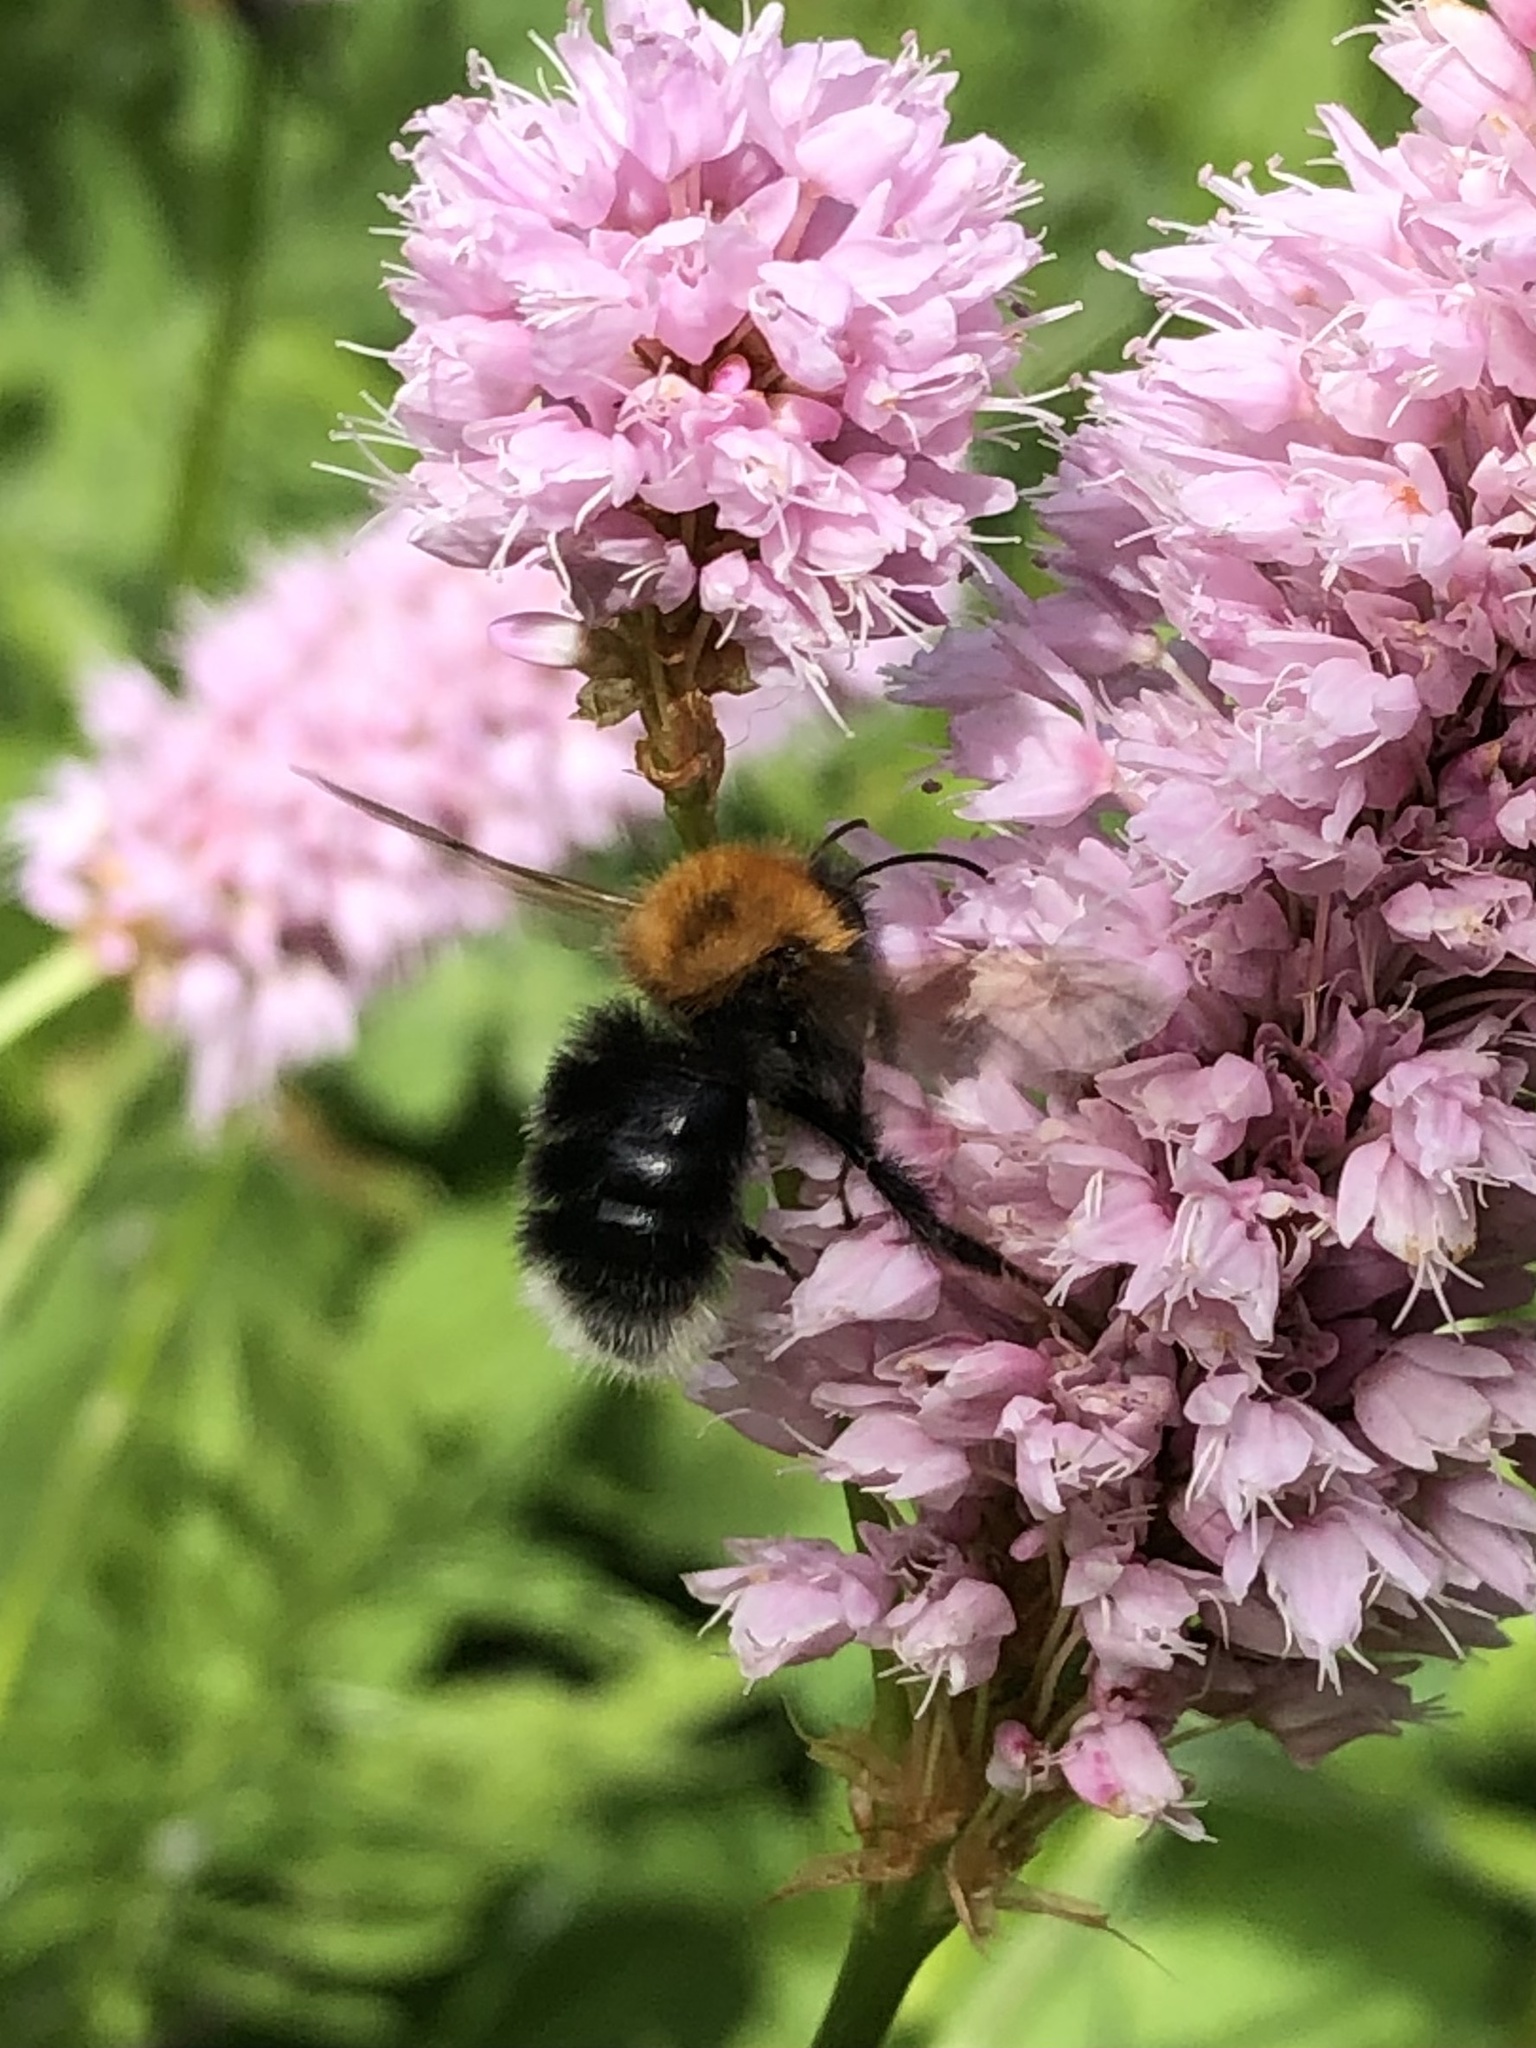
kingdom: Animalia
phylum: Arthropoda
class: Insecta
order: Hymenoptera
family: Apidae
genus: Bombus
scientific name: Bombus hypnorum
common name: New garden bumblebee
